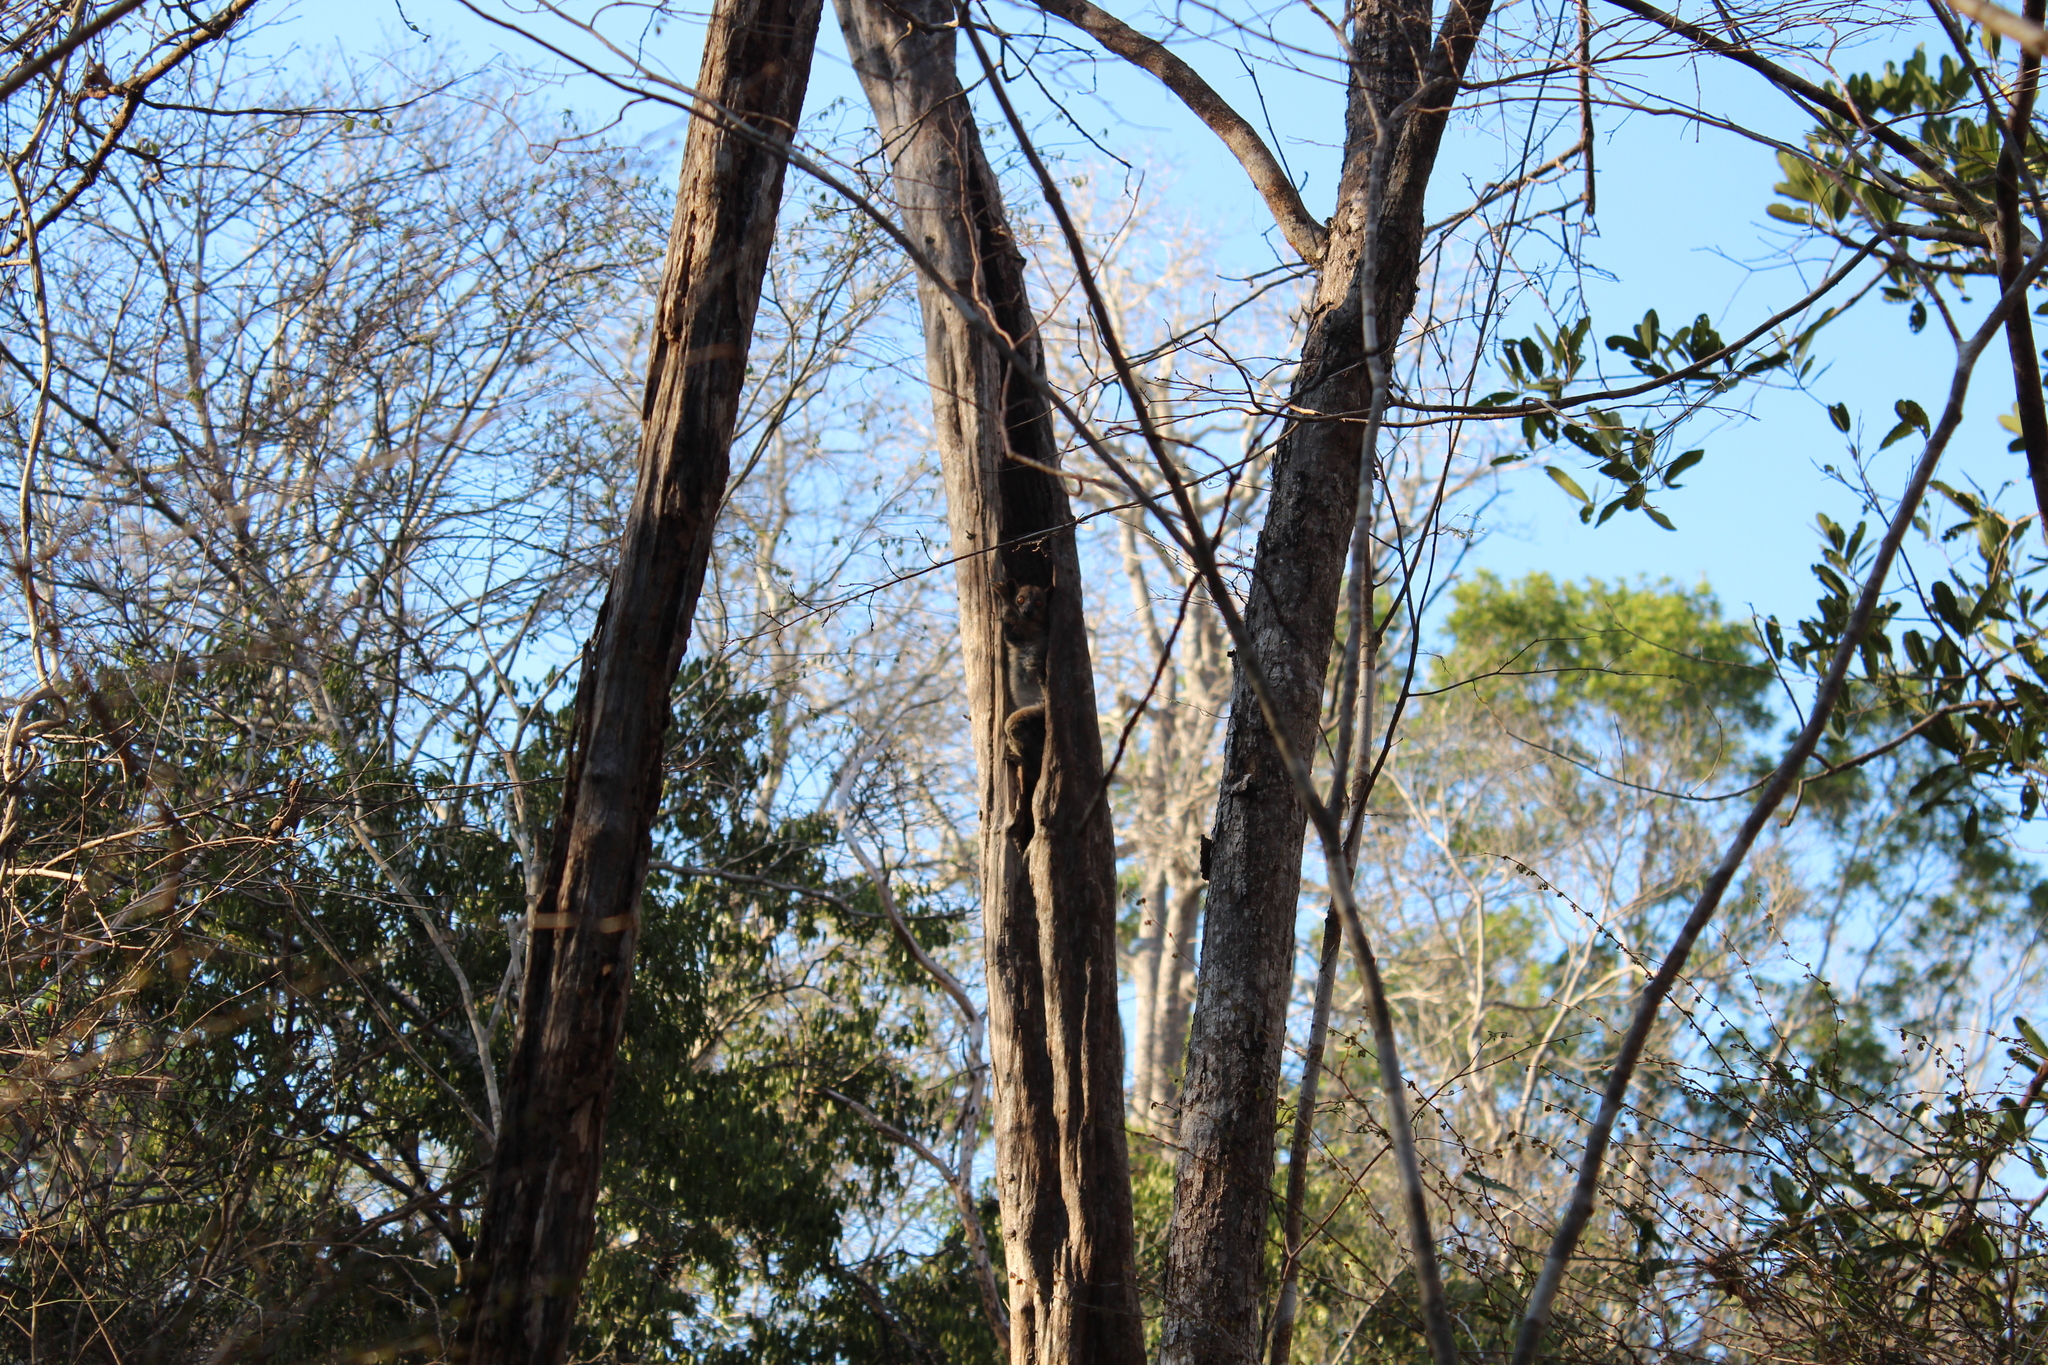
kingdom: Animalia
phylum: Chordata
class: Mammalia
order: Primates
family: Lepilemuridae
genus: Lepilemur
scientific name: Lepilemur ruficaudatus
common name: Red-tailed sportive lemur
